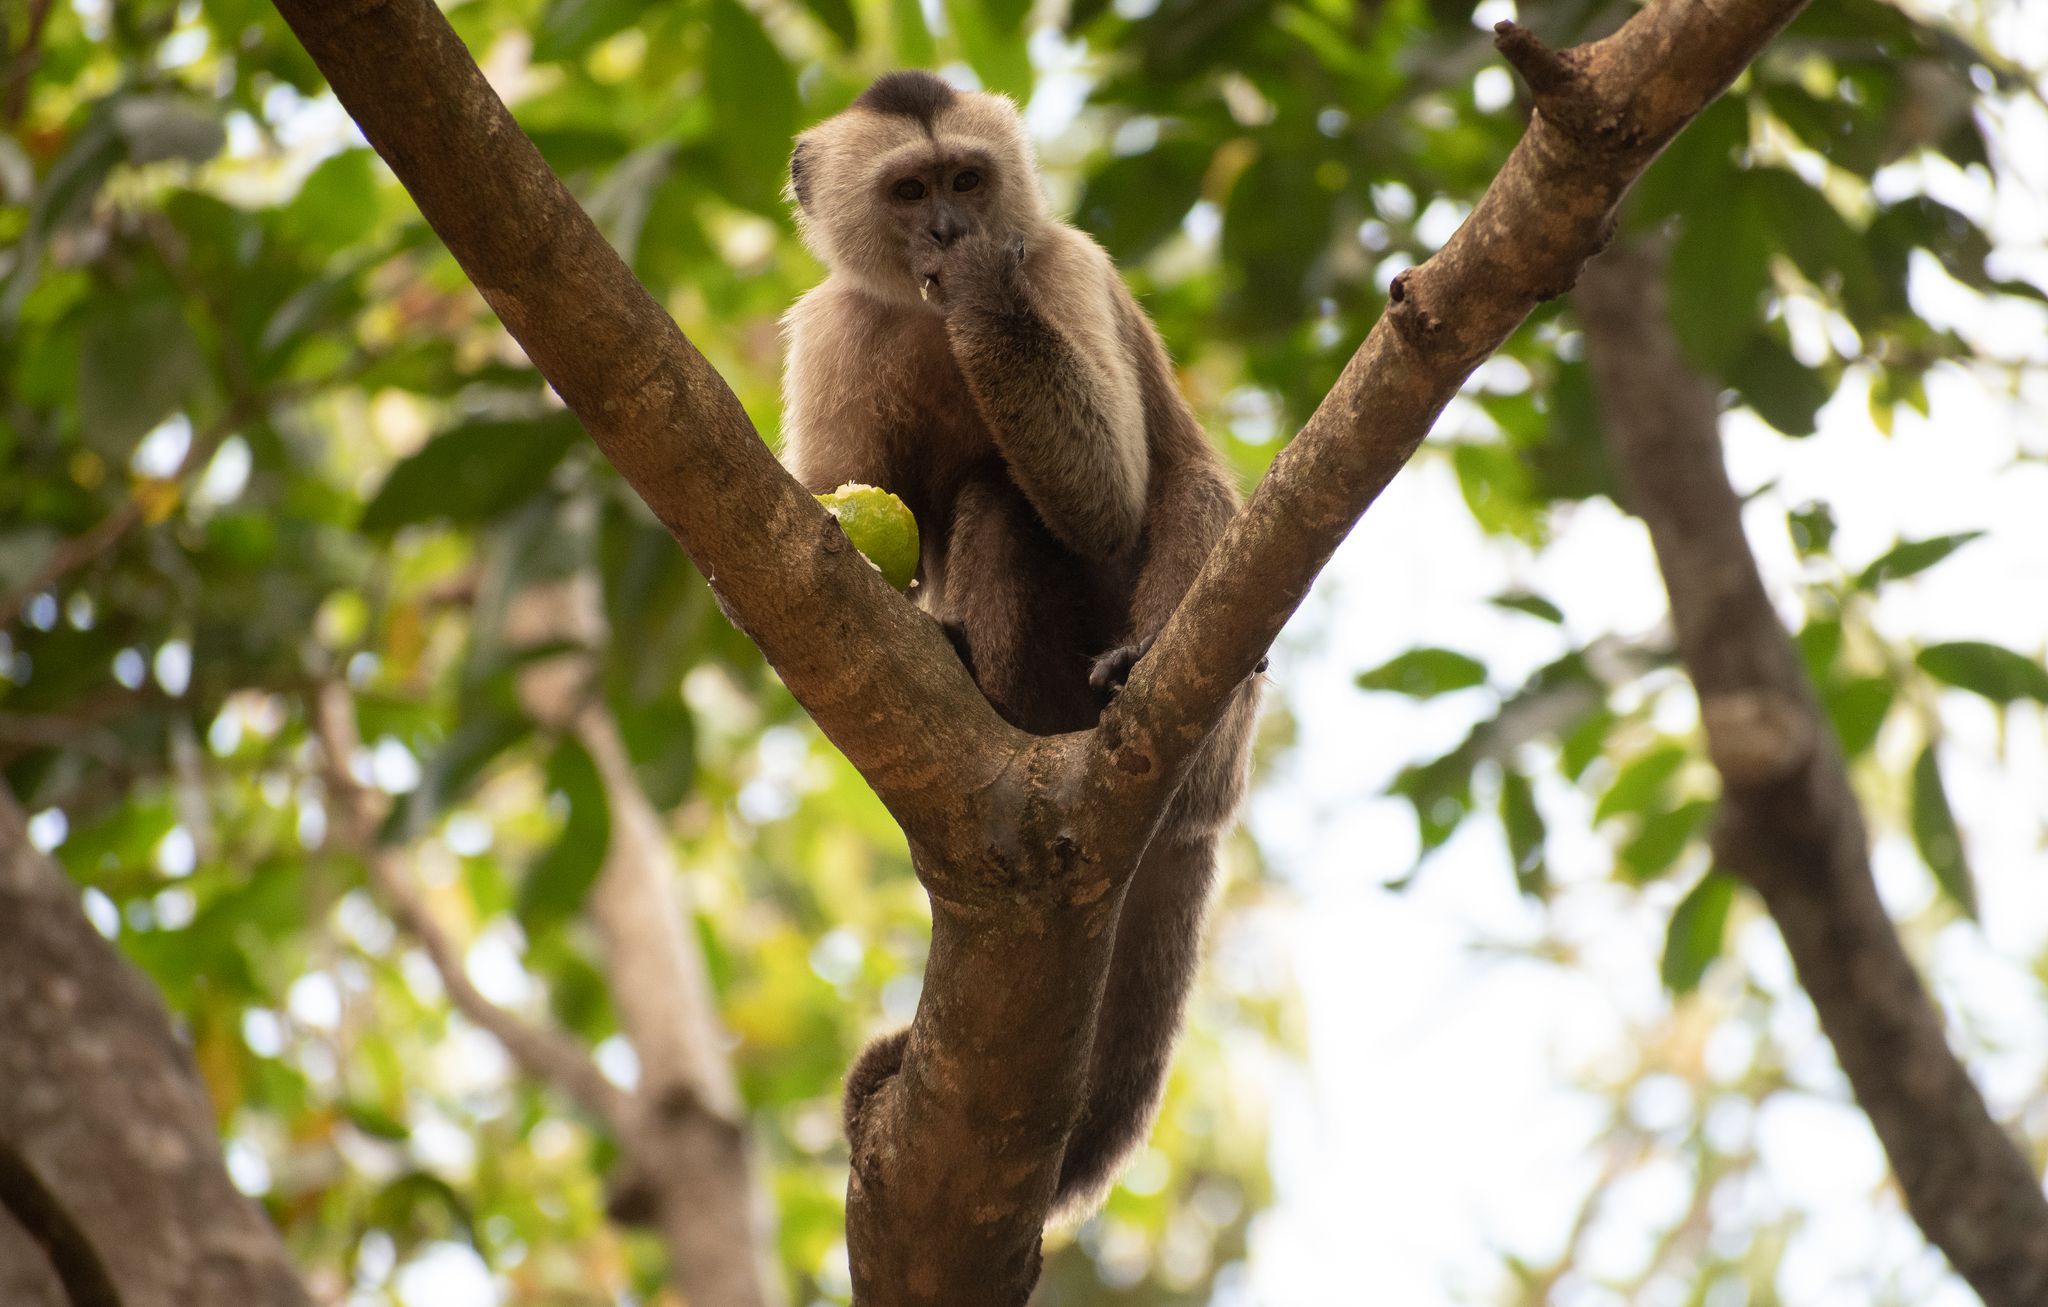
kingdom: Animalia
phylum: Chordata
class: Mammalia
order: Primates
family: Cebidae
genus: Cebus
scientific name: Cebus olivaceus
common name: Weeper capuchin
